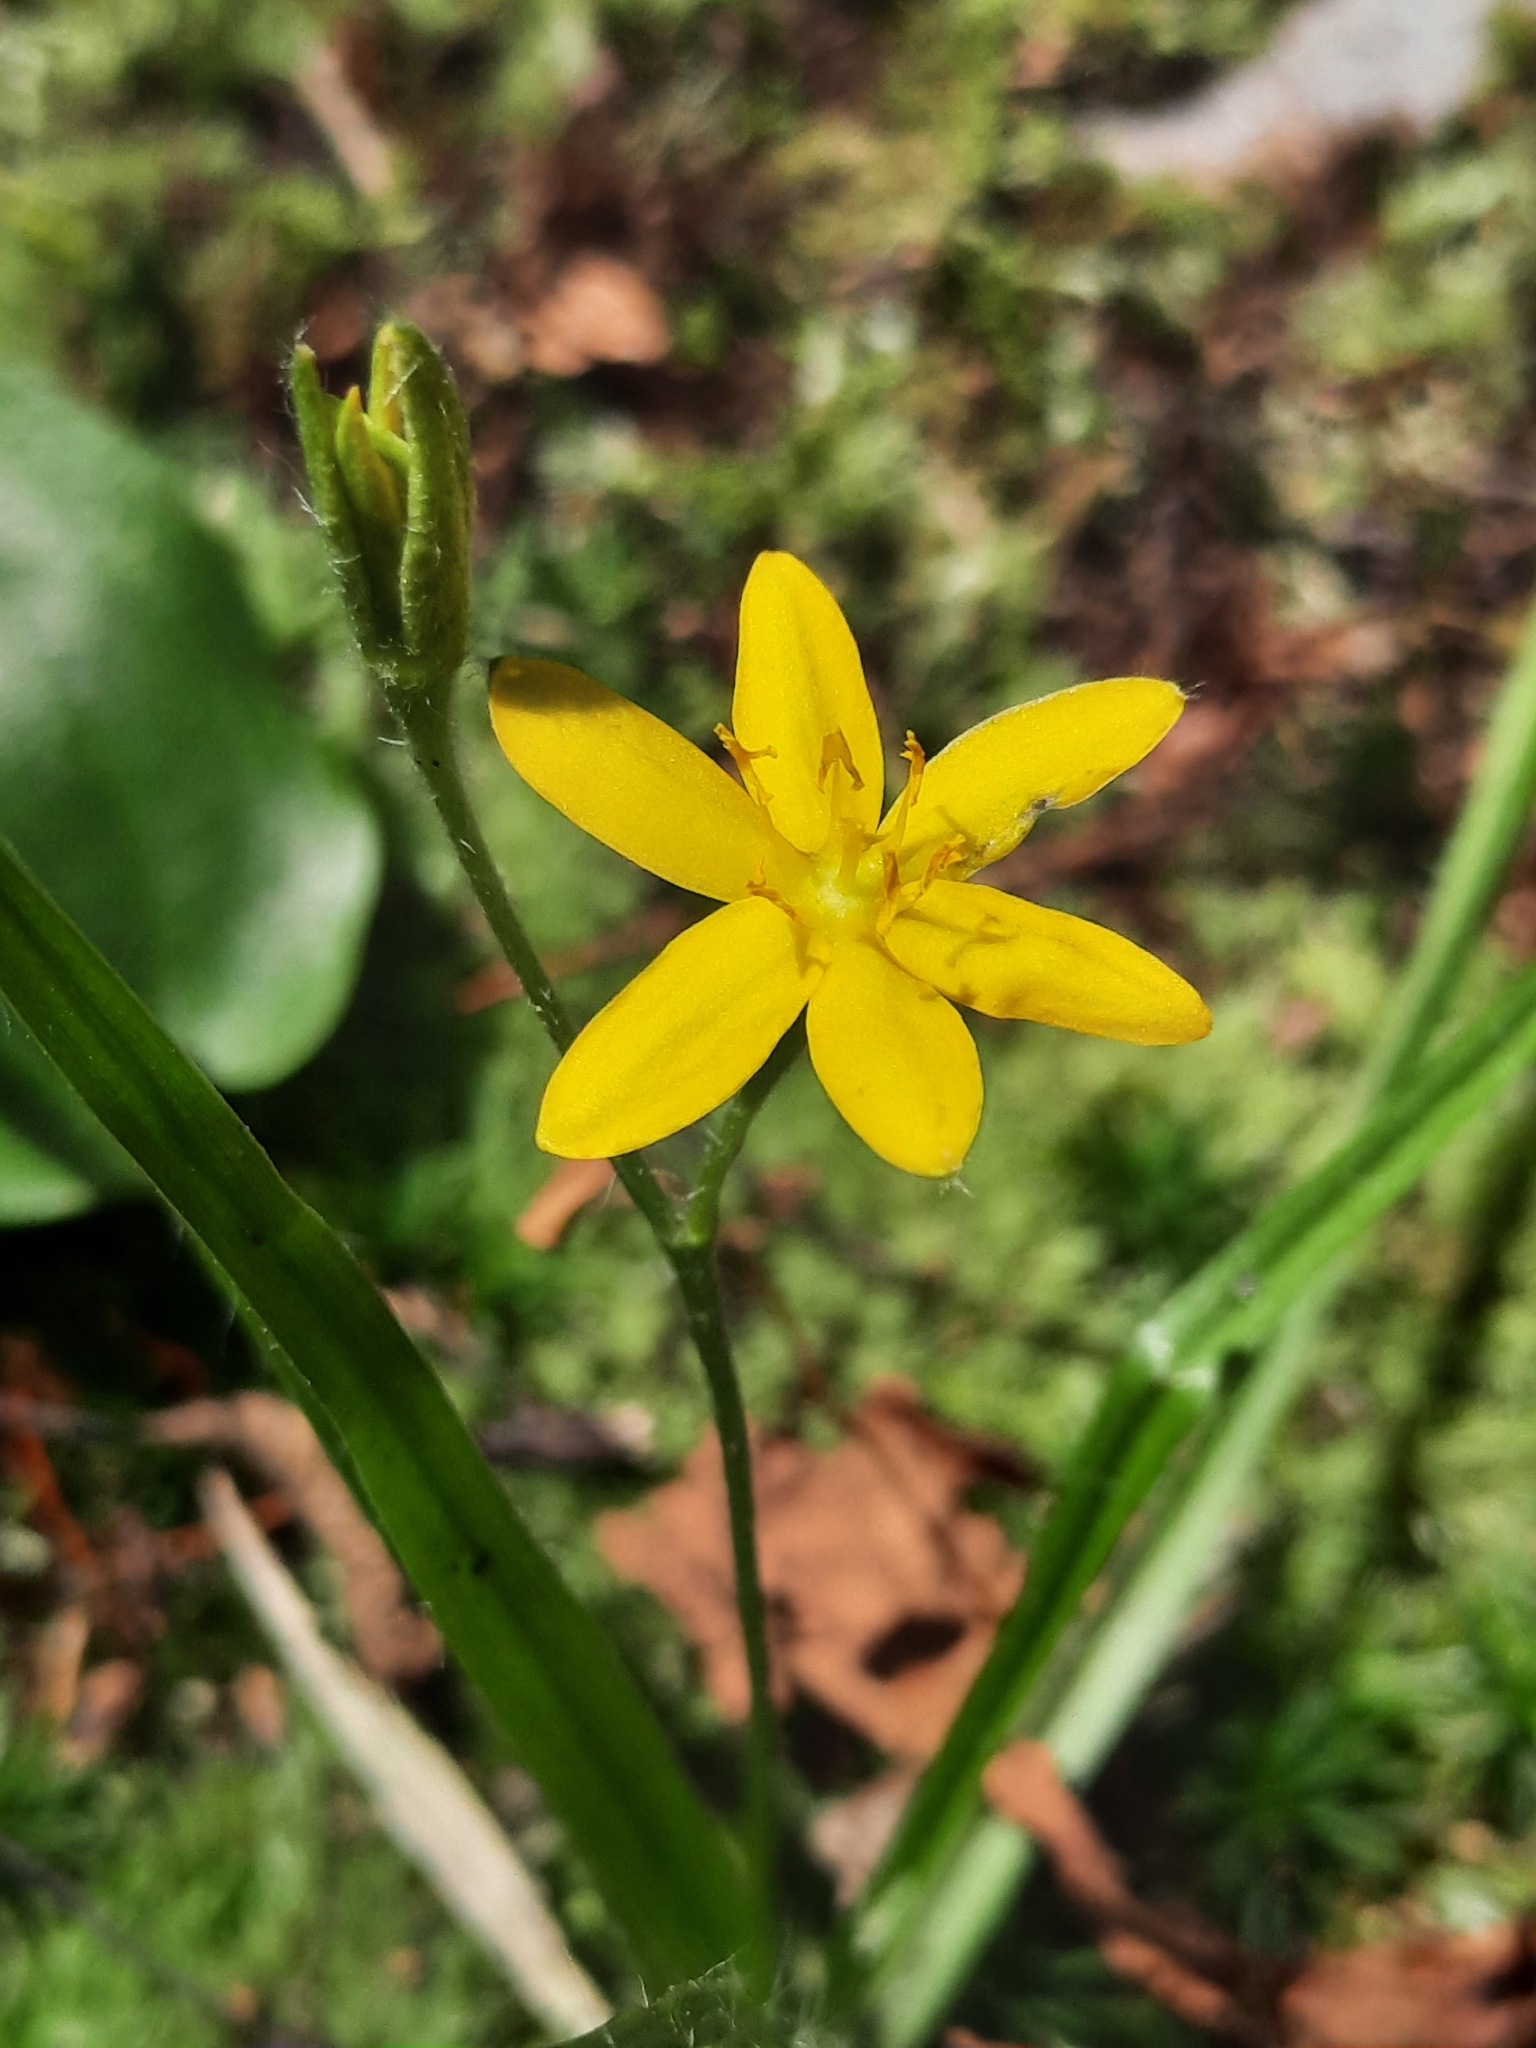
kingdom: Plantae
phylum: Tracheophyta
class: Liliopsida
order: Asparagales
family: Hypoxidaceae
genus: Hypoxis
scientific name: Hypoxis hirsuta
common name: Common goldstar
